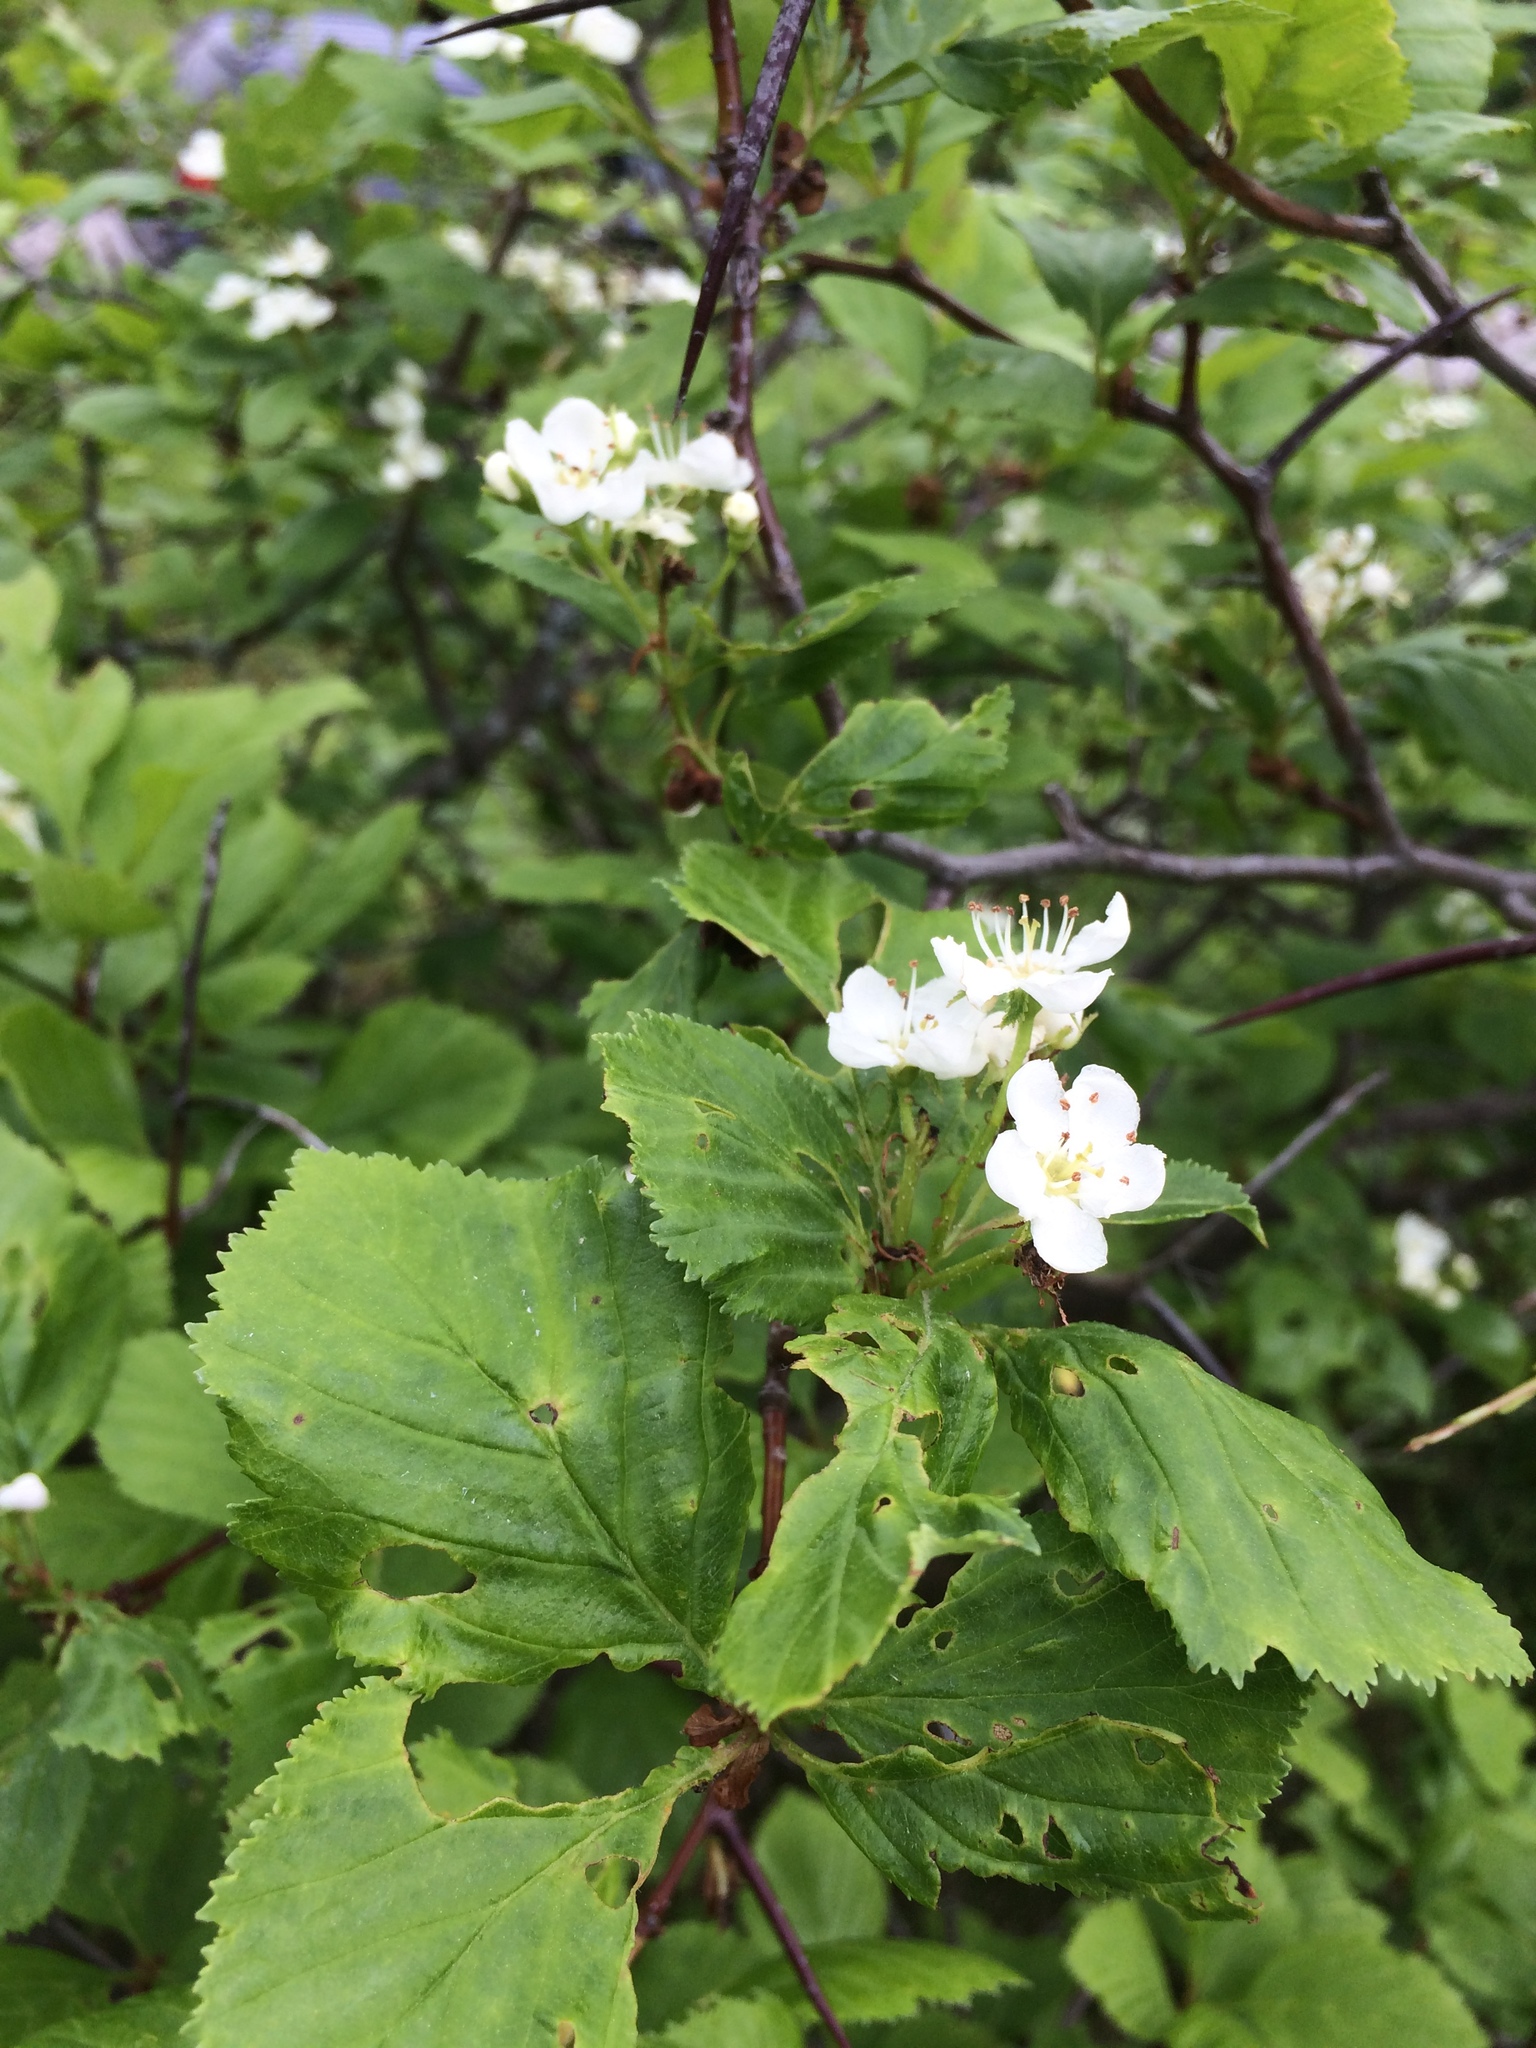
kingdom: Plantae
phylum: Tracheophyta
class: Magnoliopsida
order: Rosales
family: Rosaceae
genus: Crataegus
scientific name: Crataegus macracantha
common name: Large-thorn hawthorn
